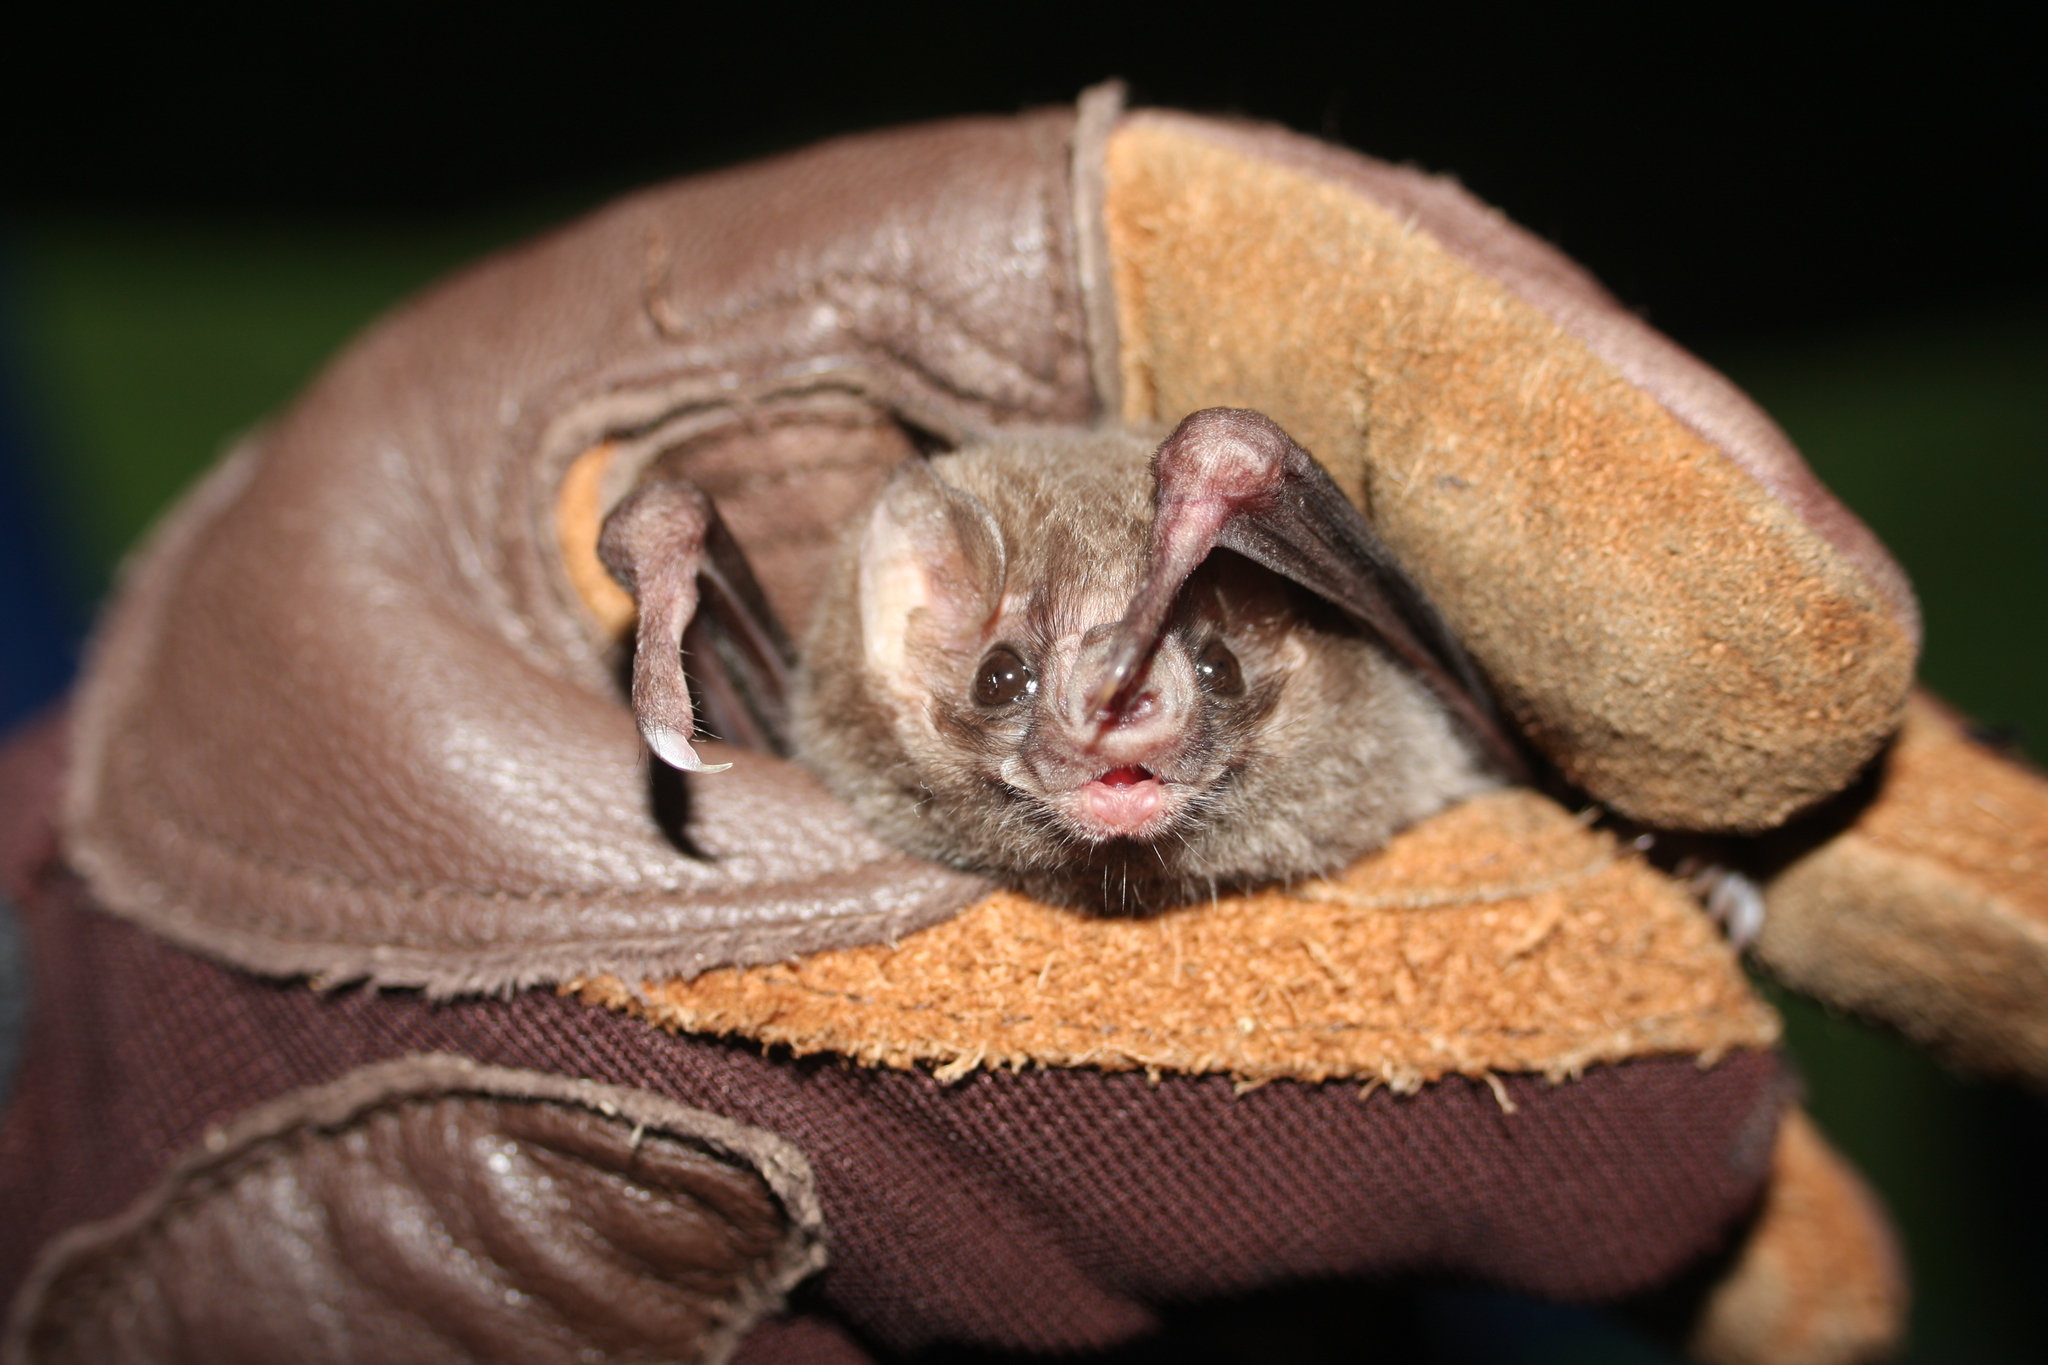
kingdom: Animalia
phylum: Chordata
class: Mammalia
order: Chiroptera
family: Phyllostomidae
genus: Diphylla
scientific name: Diphylla ecaudata
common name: Hairy-legged vampire bat
